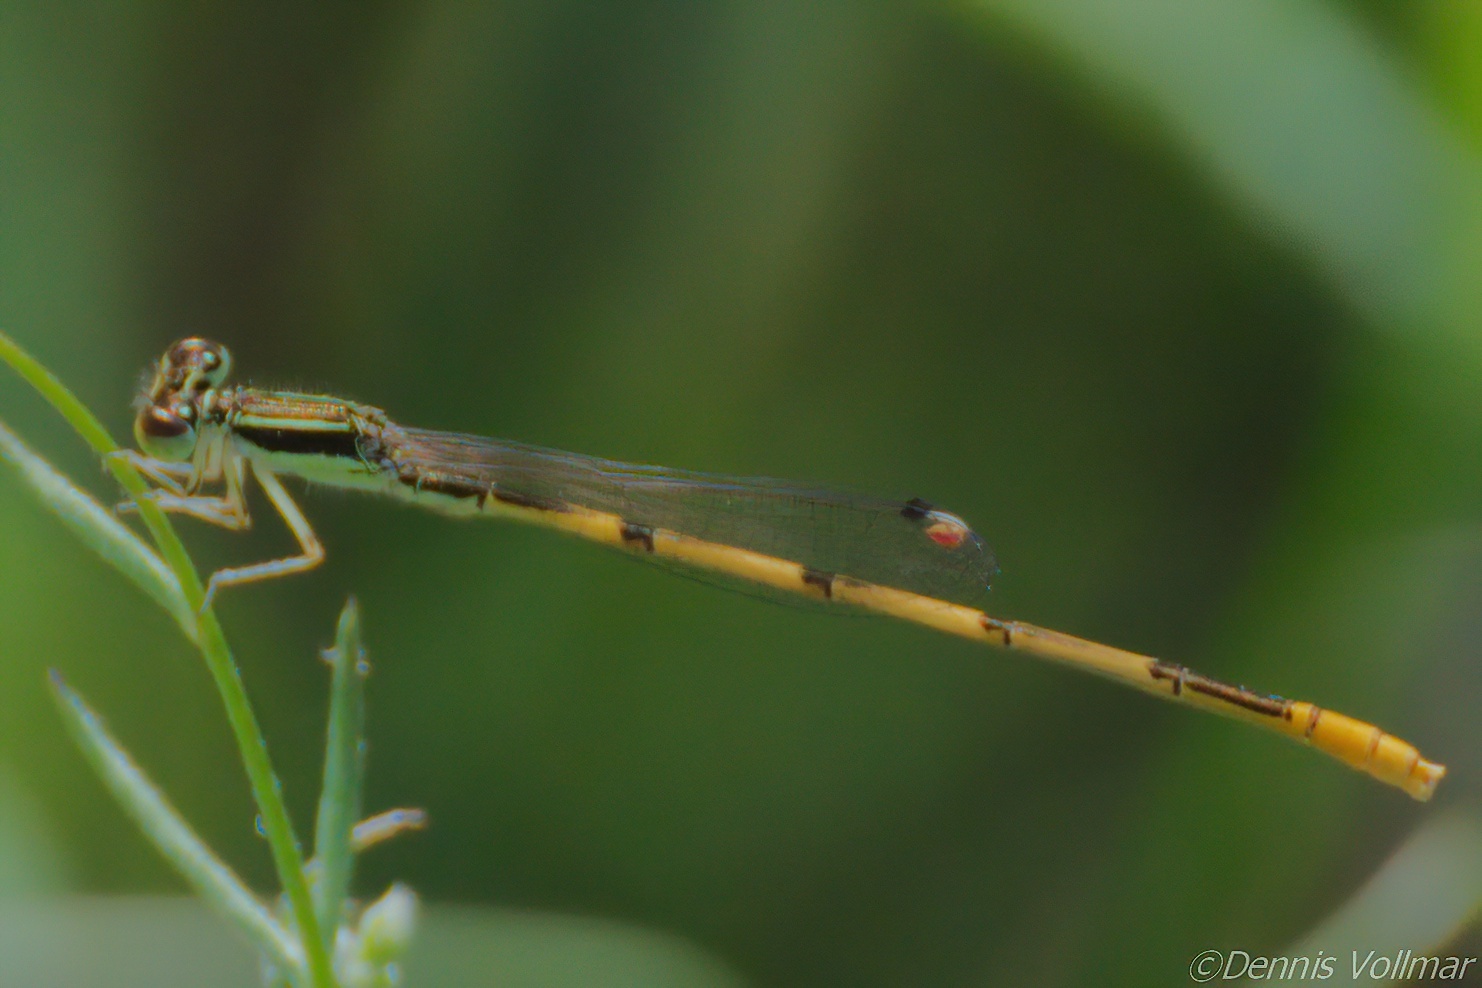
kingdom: Animalia
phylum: Arthropoda
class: Insecta
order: Odonata
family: Coenagrionidae
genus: Ischnura
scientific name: Ischnura hastata
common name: Citrine forktail
